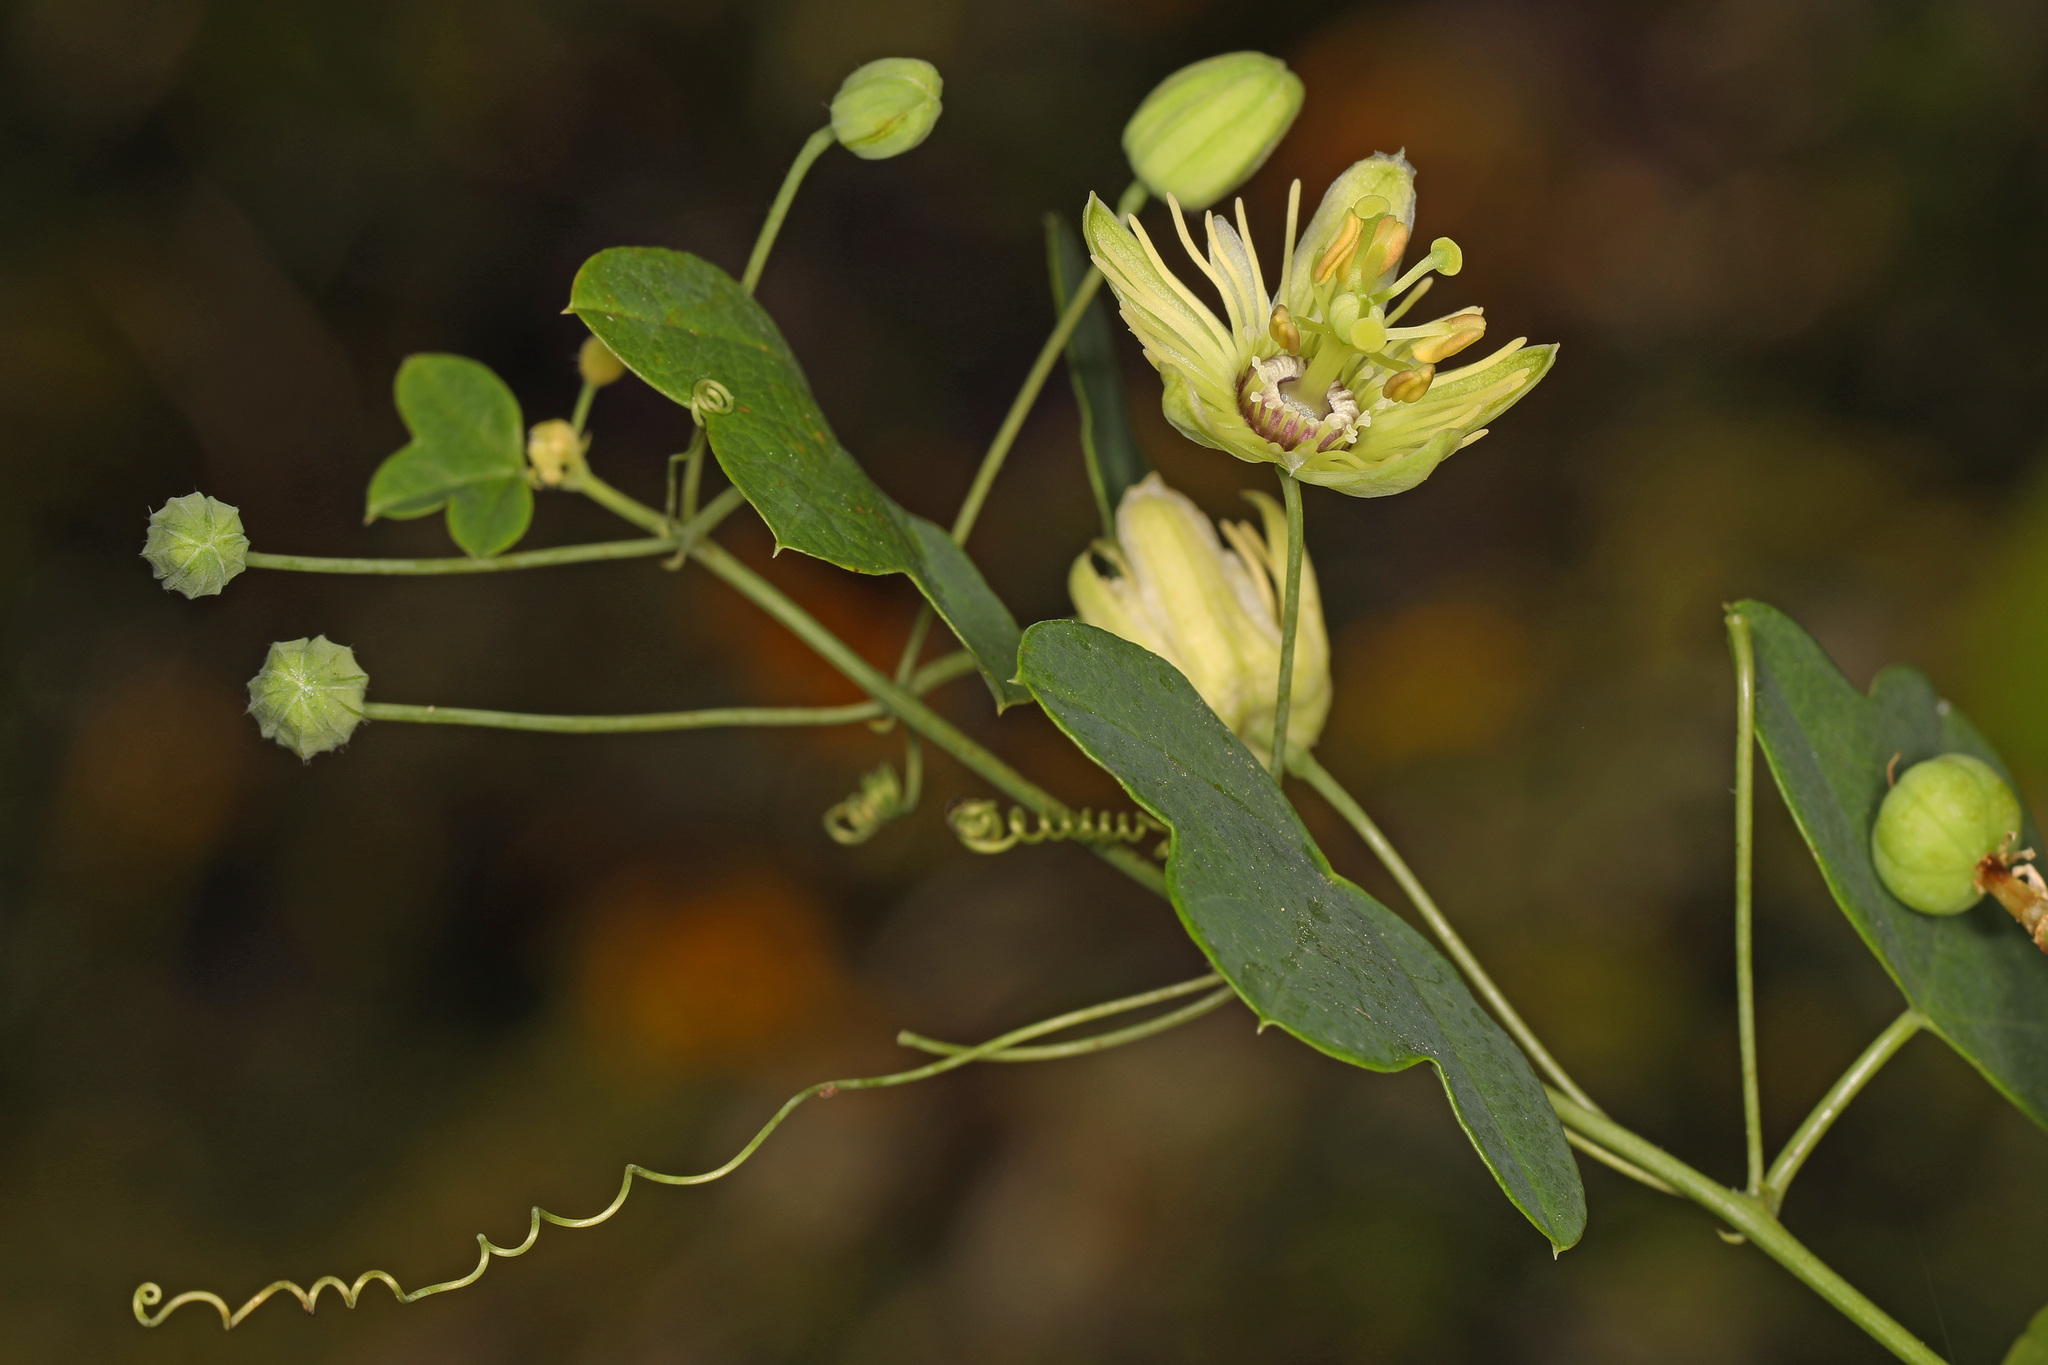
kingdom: Plantae
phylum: Tracheophyta
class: Magnoliopsida
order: Malpighiales
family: Passifloraceae
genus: Passiflora
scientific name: Passiflora lutea
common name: Yellow passionflower
